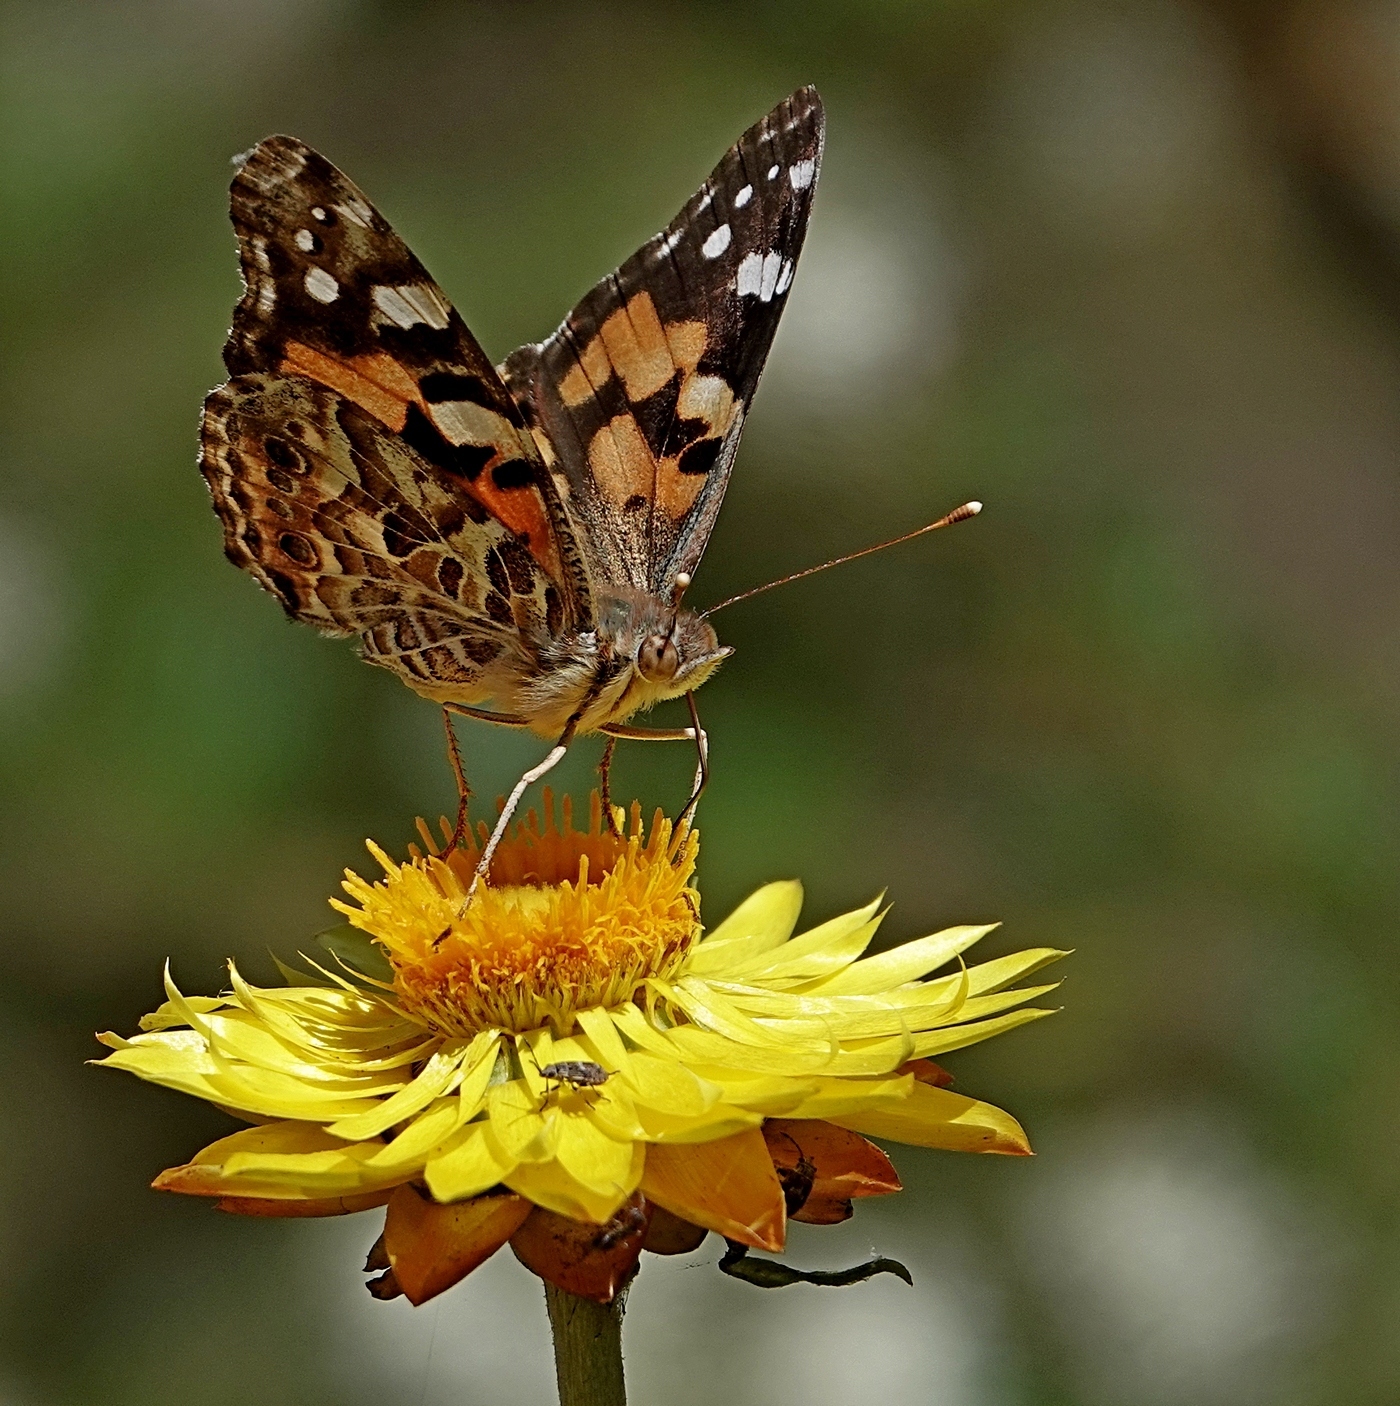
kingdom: Animalia
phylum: Arthropoda
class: Insecta
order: Lepidoptera
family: Nymphalidae
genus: Vanessa
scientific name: Vanessa kershawi
